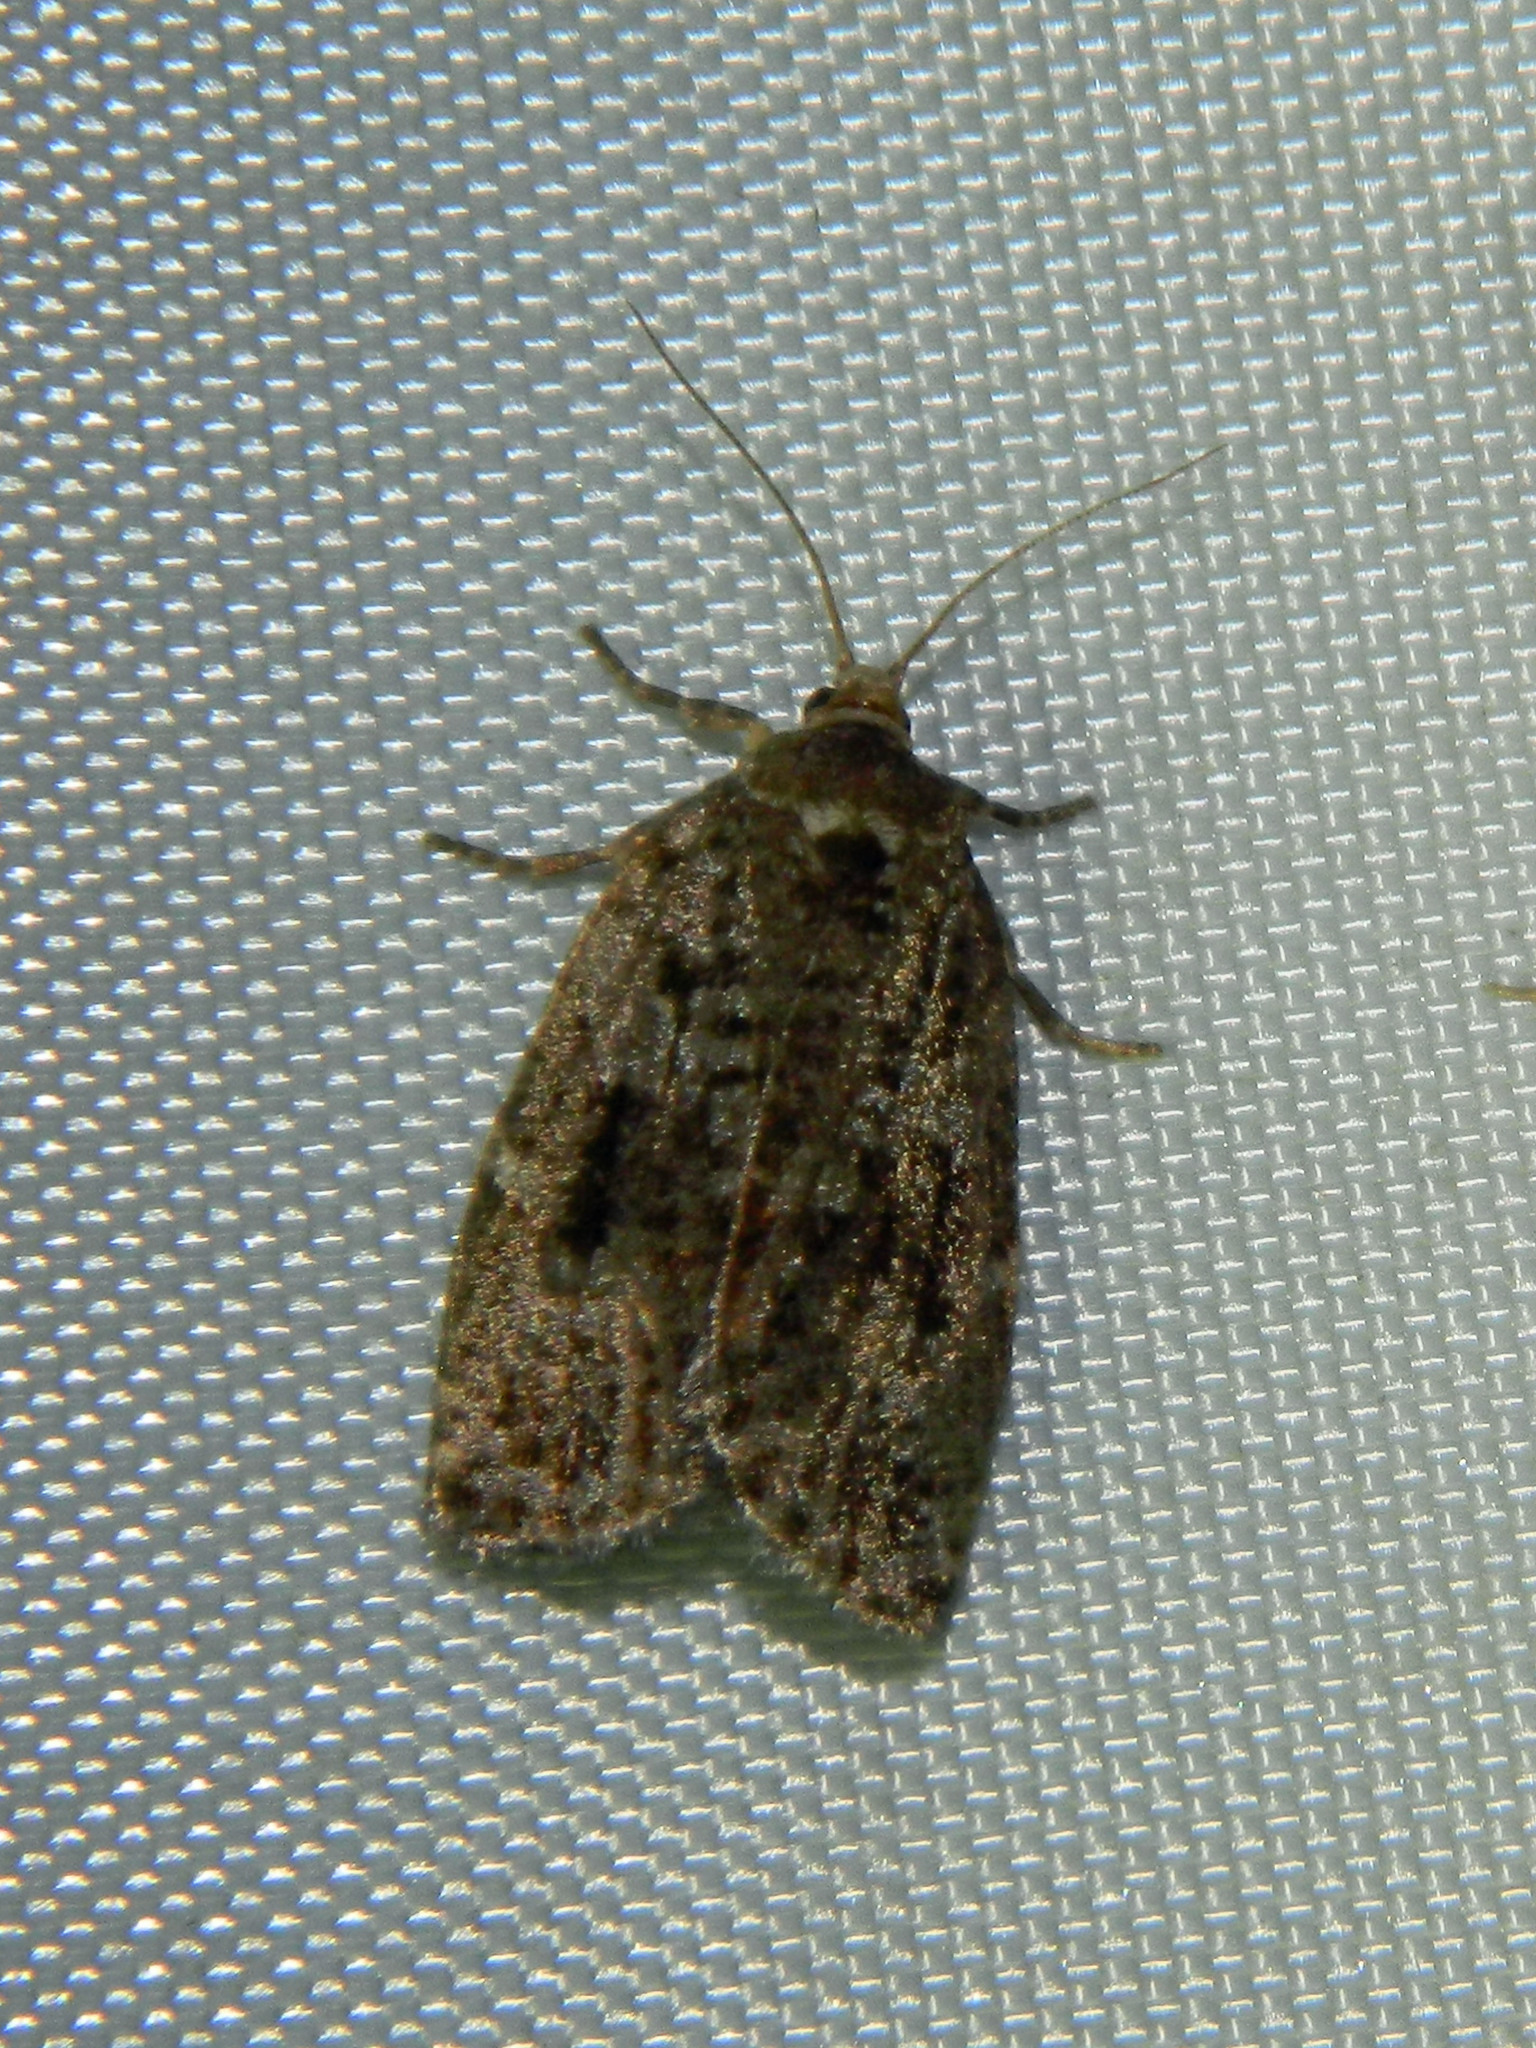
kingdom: Animalia
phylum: Arthropoda
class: Insecta
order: Lepidoptera
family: Tortricidae
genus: Choristoneura
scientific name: Choristoneura fumiferana
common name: Spruce budworm
